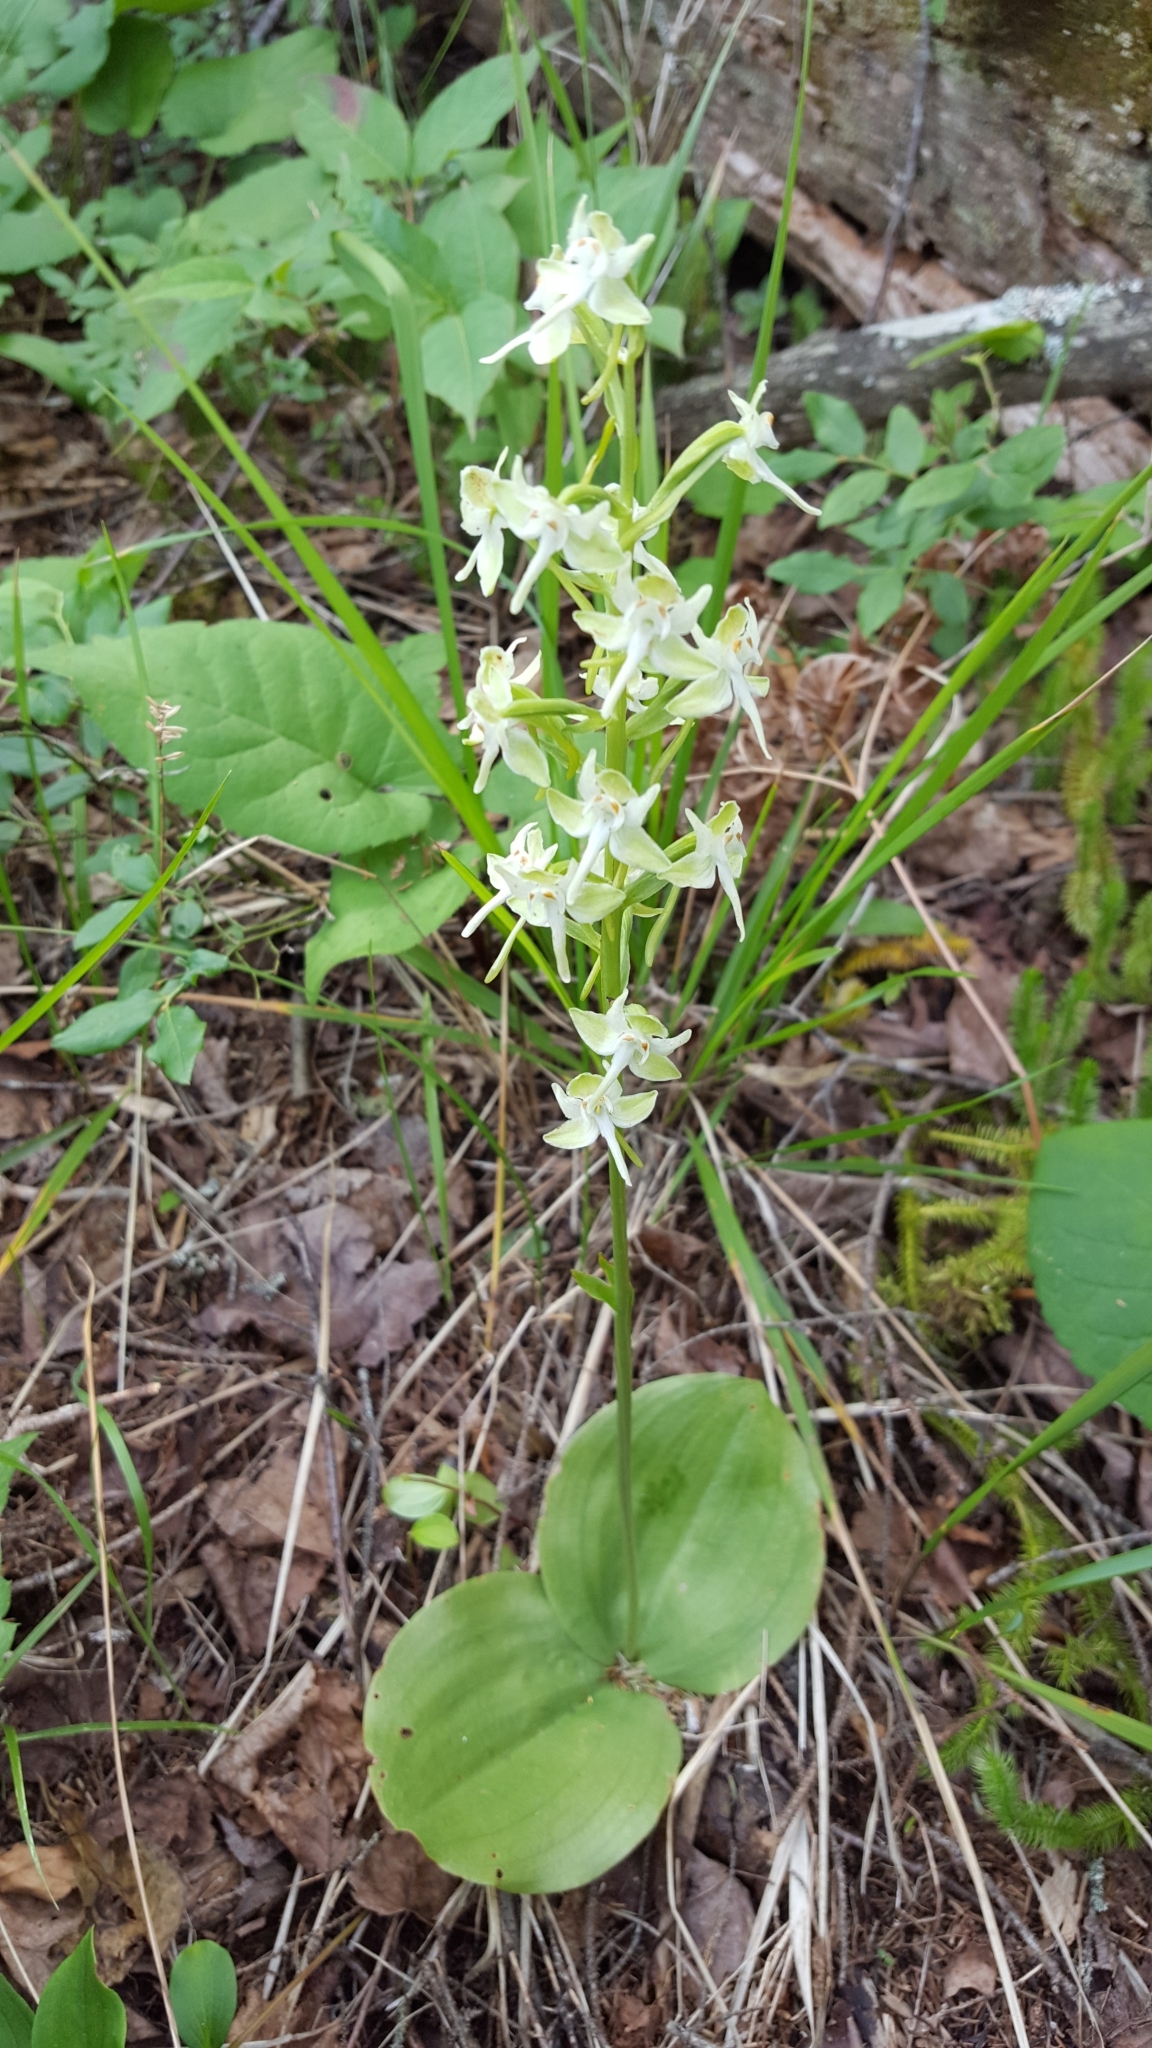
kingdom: Plantae
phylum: Tracheophyta
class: Liliopsida
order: Asparagales
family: Orchidaceae
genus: Platanthera
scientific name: Platanthera orbiculata
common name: Large round-leaved orchid
